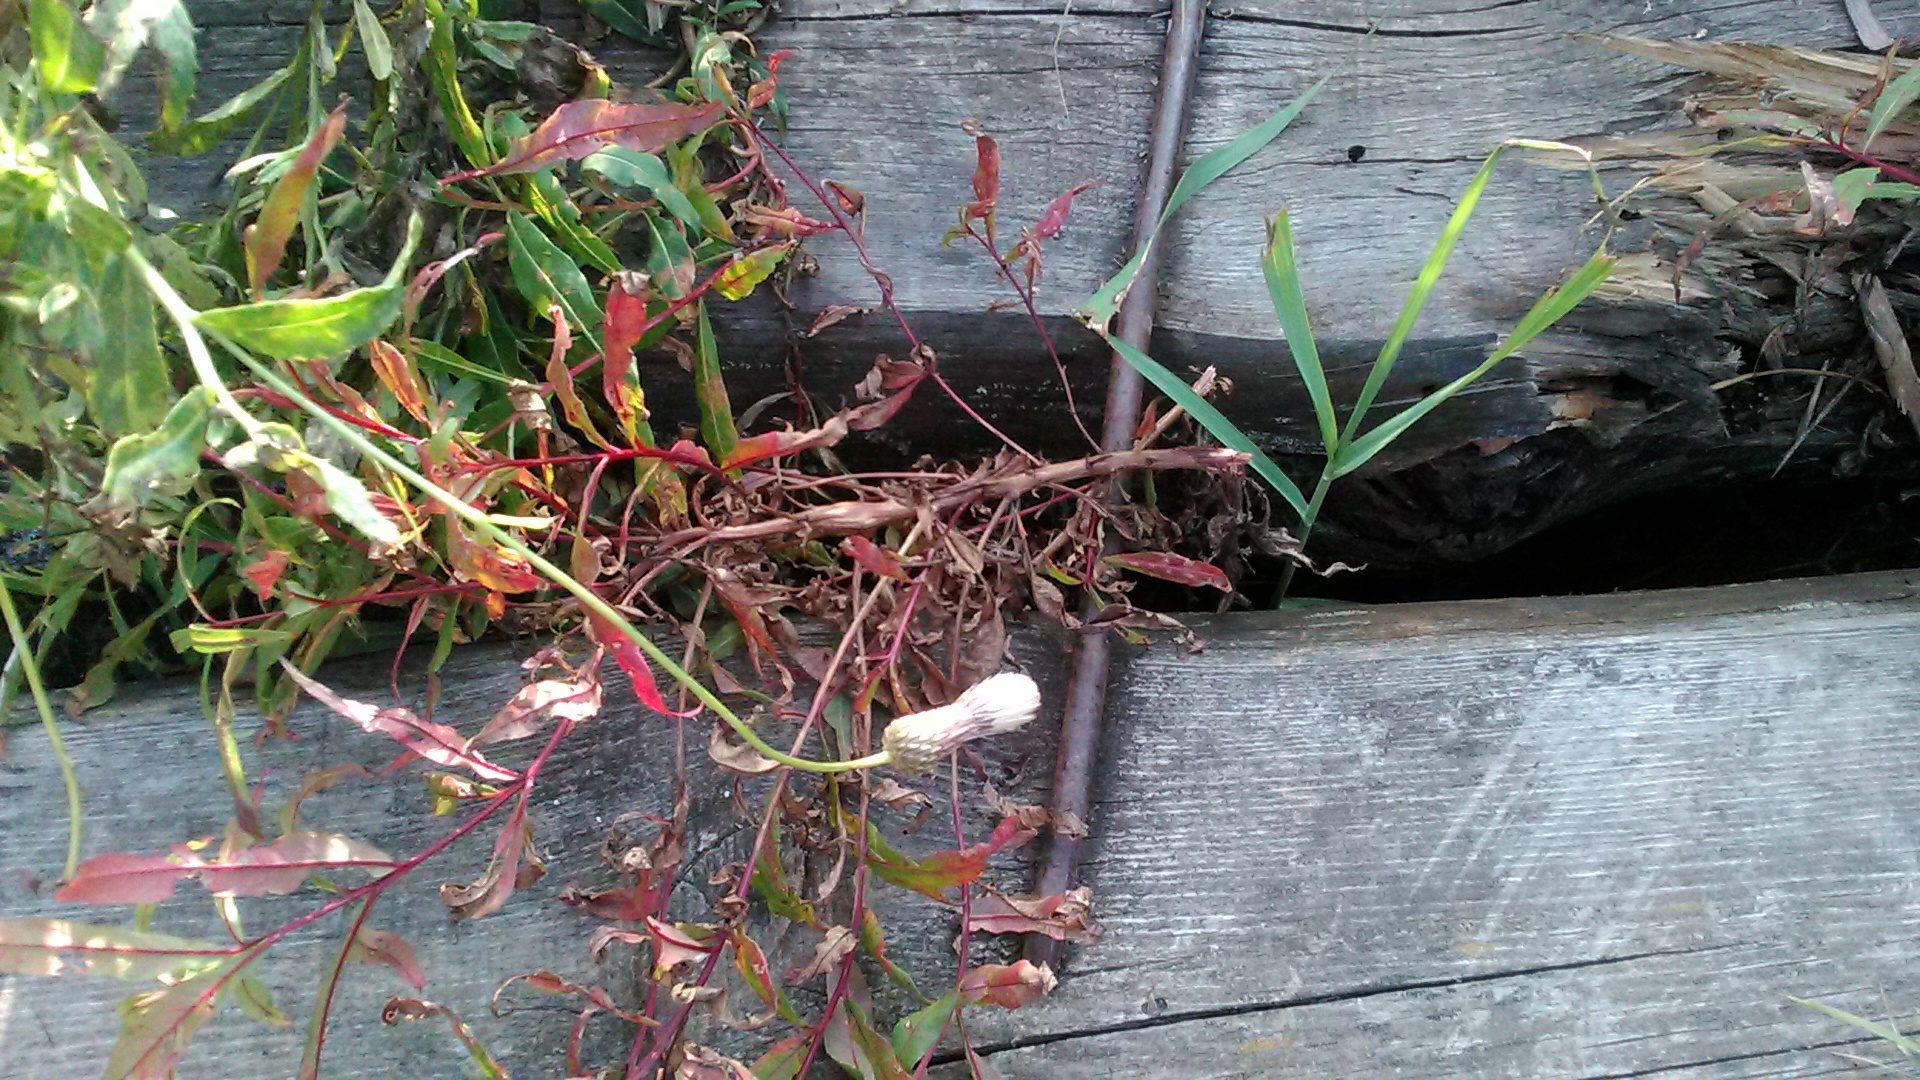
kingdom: Plantae
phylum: Tracheophyta
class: Magnoliopsida
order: Asterales
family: Asteraceae
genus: Cirsium
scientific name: Cirsium arvense
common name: Creeping thistle
